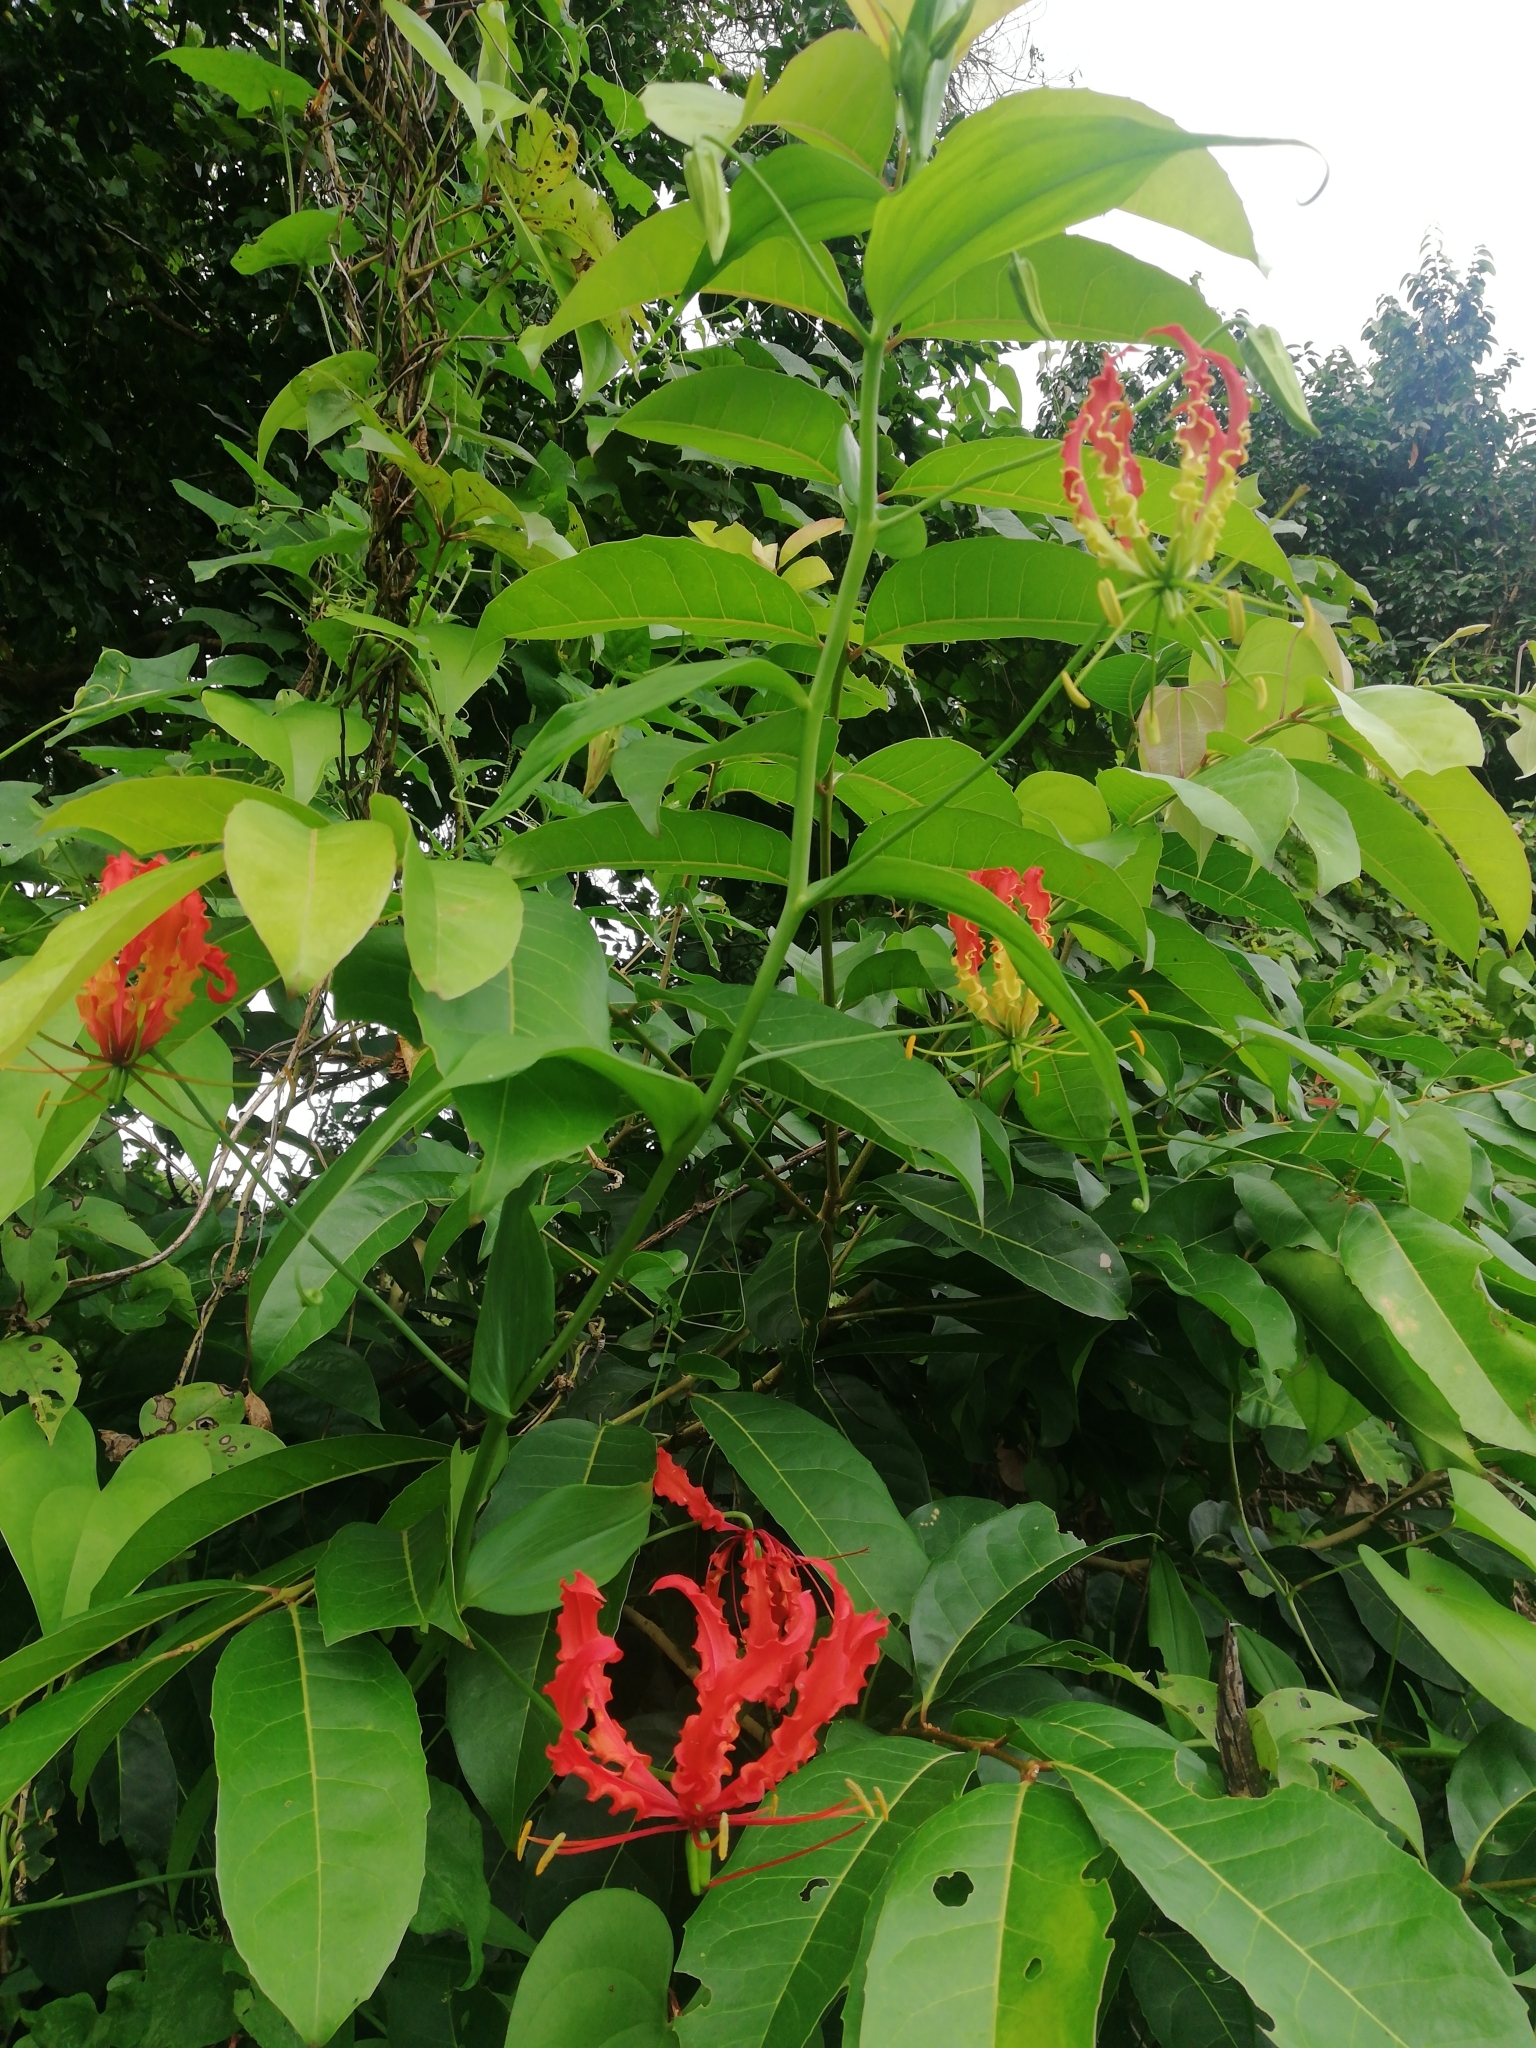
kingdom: Plantae
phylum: Tracheophyta
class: Liliopsida
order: Liliales
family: Colchicaceae
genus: Gloriosa
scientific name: Gloriosa superba
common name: Flame lily
